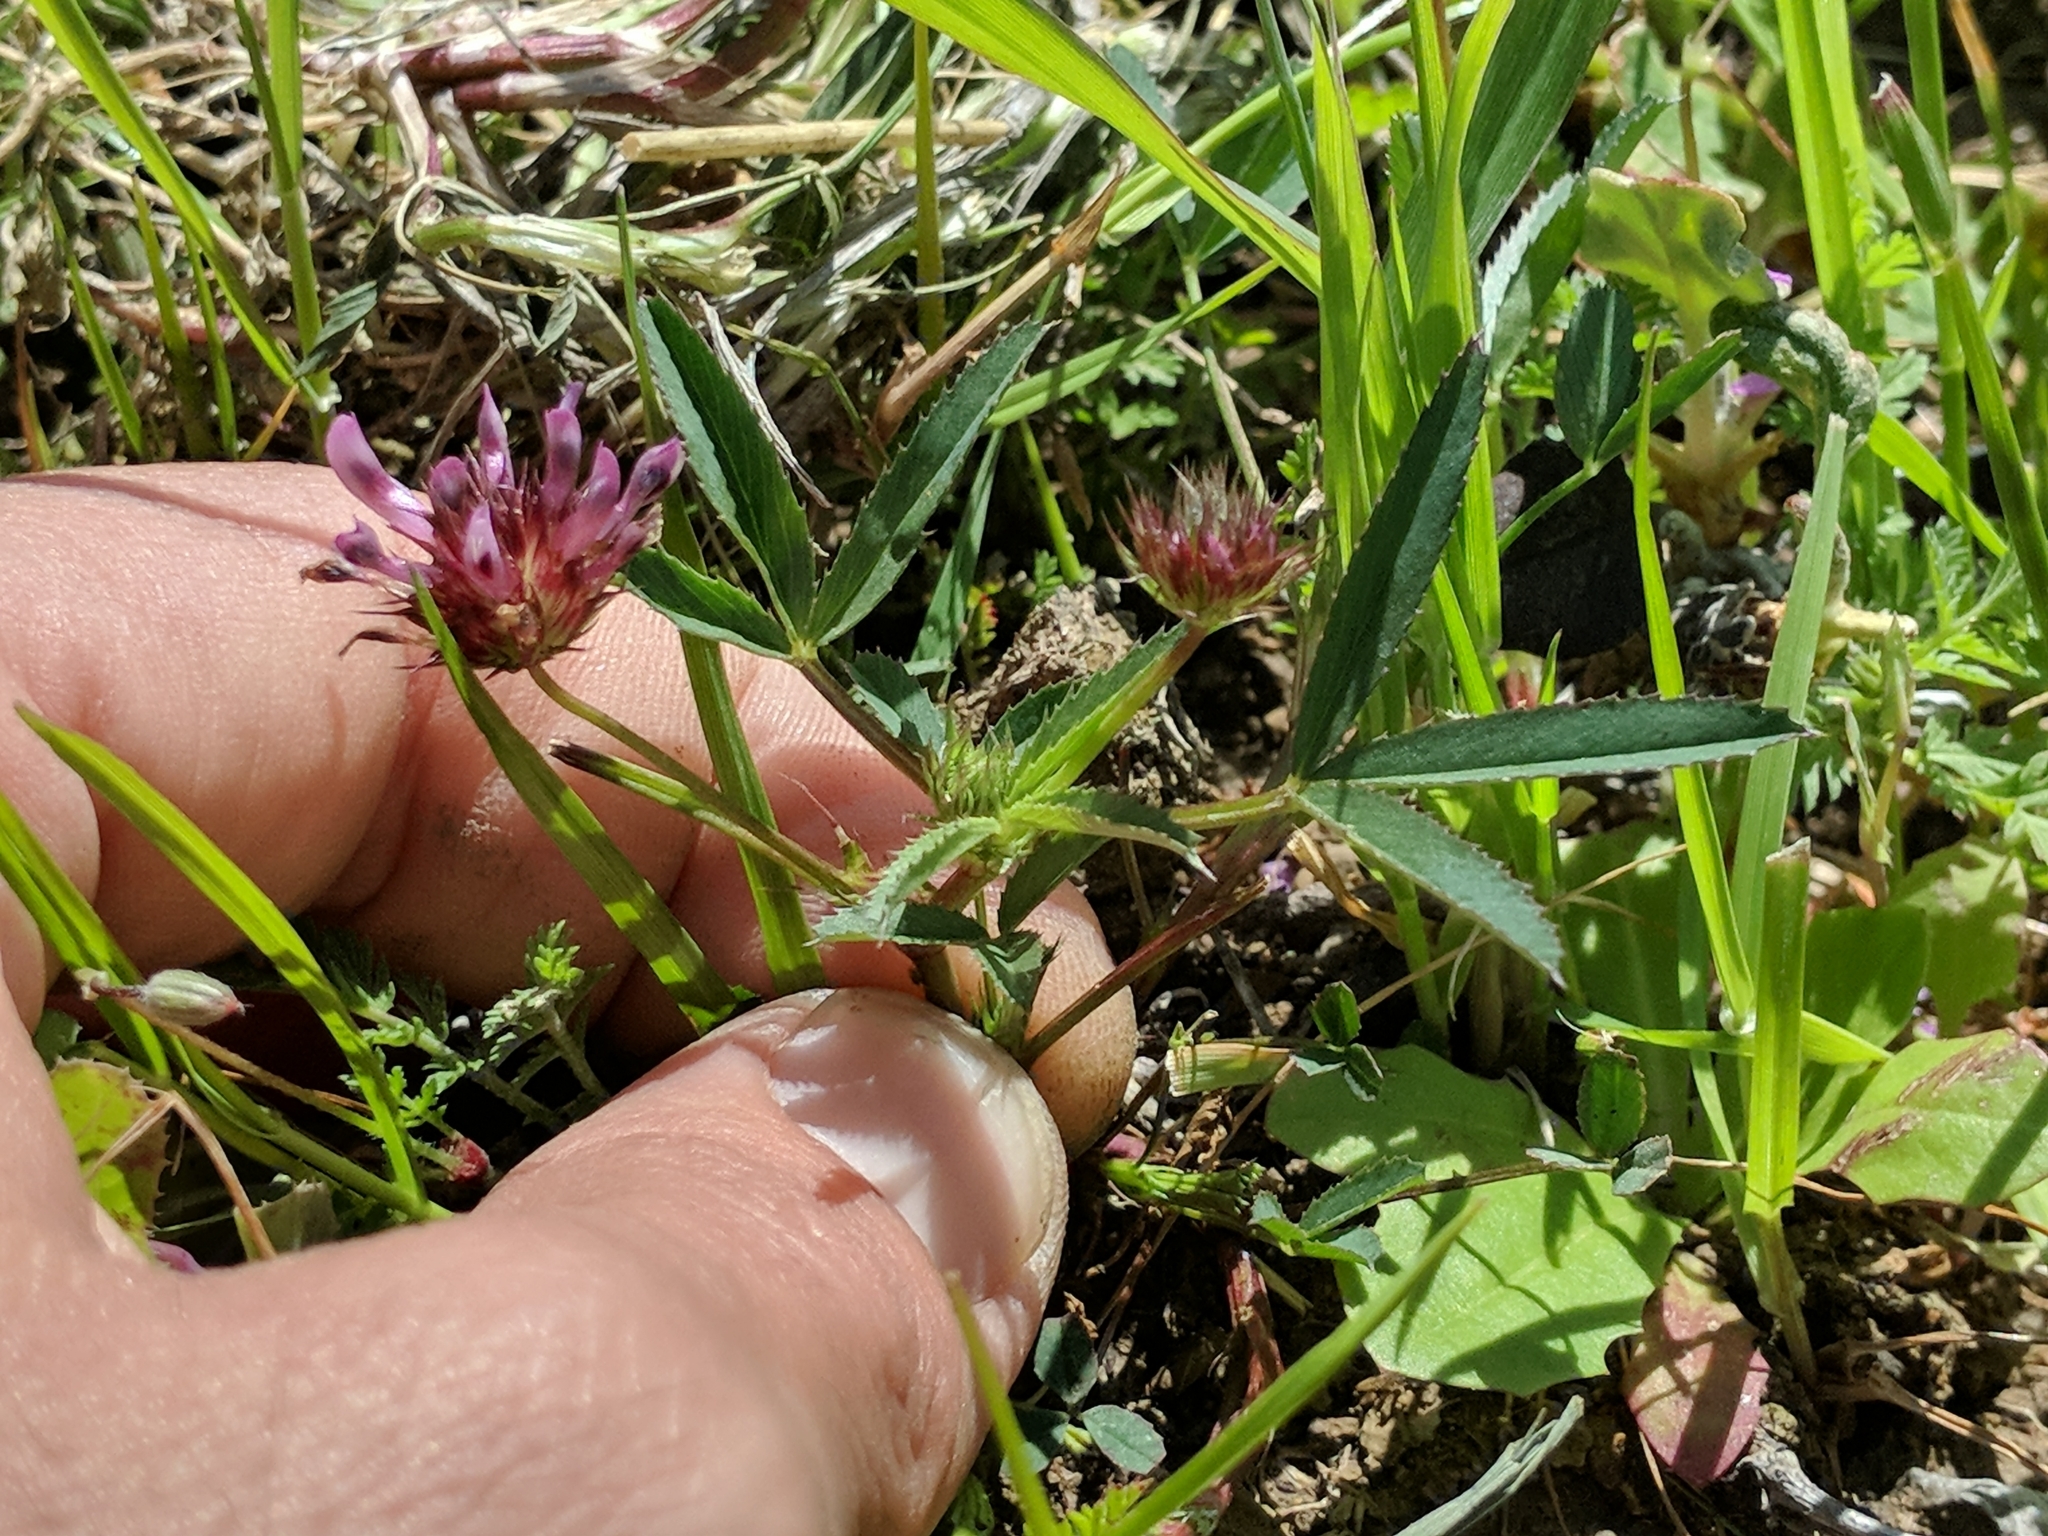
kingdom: Plantae
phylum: Tracheophyta
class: Magnoliopsida
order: Fabales
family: Fabaceae
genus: Trifolium
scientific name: Trifolium willdenovii
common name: Tomcat clover
